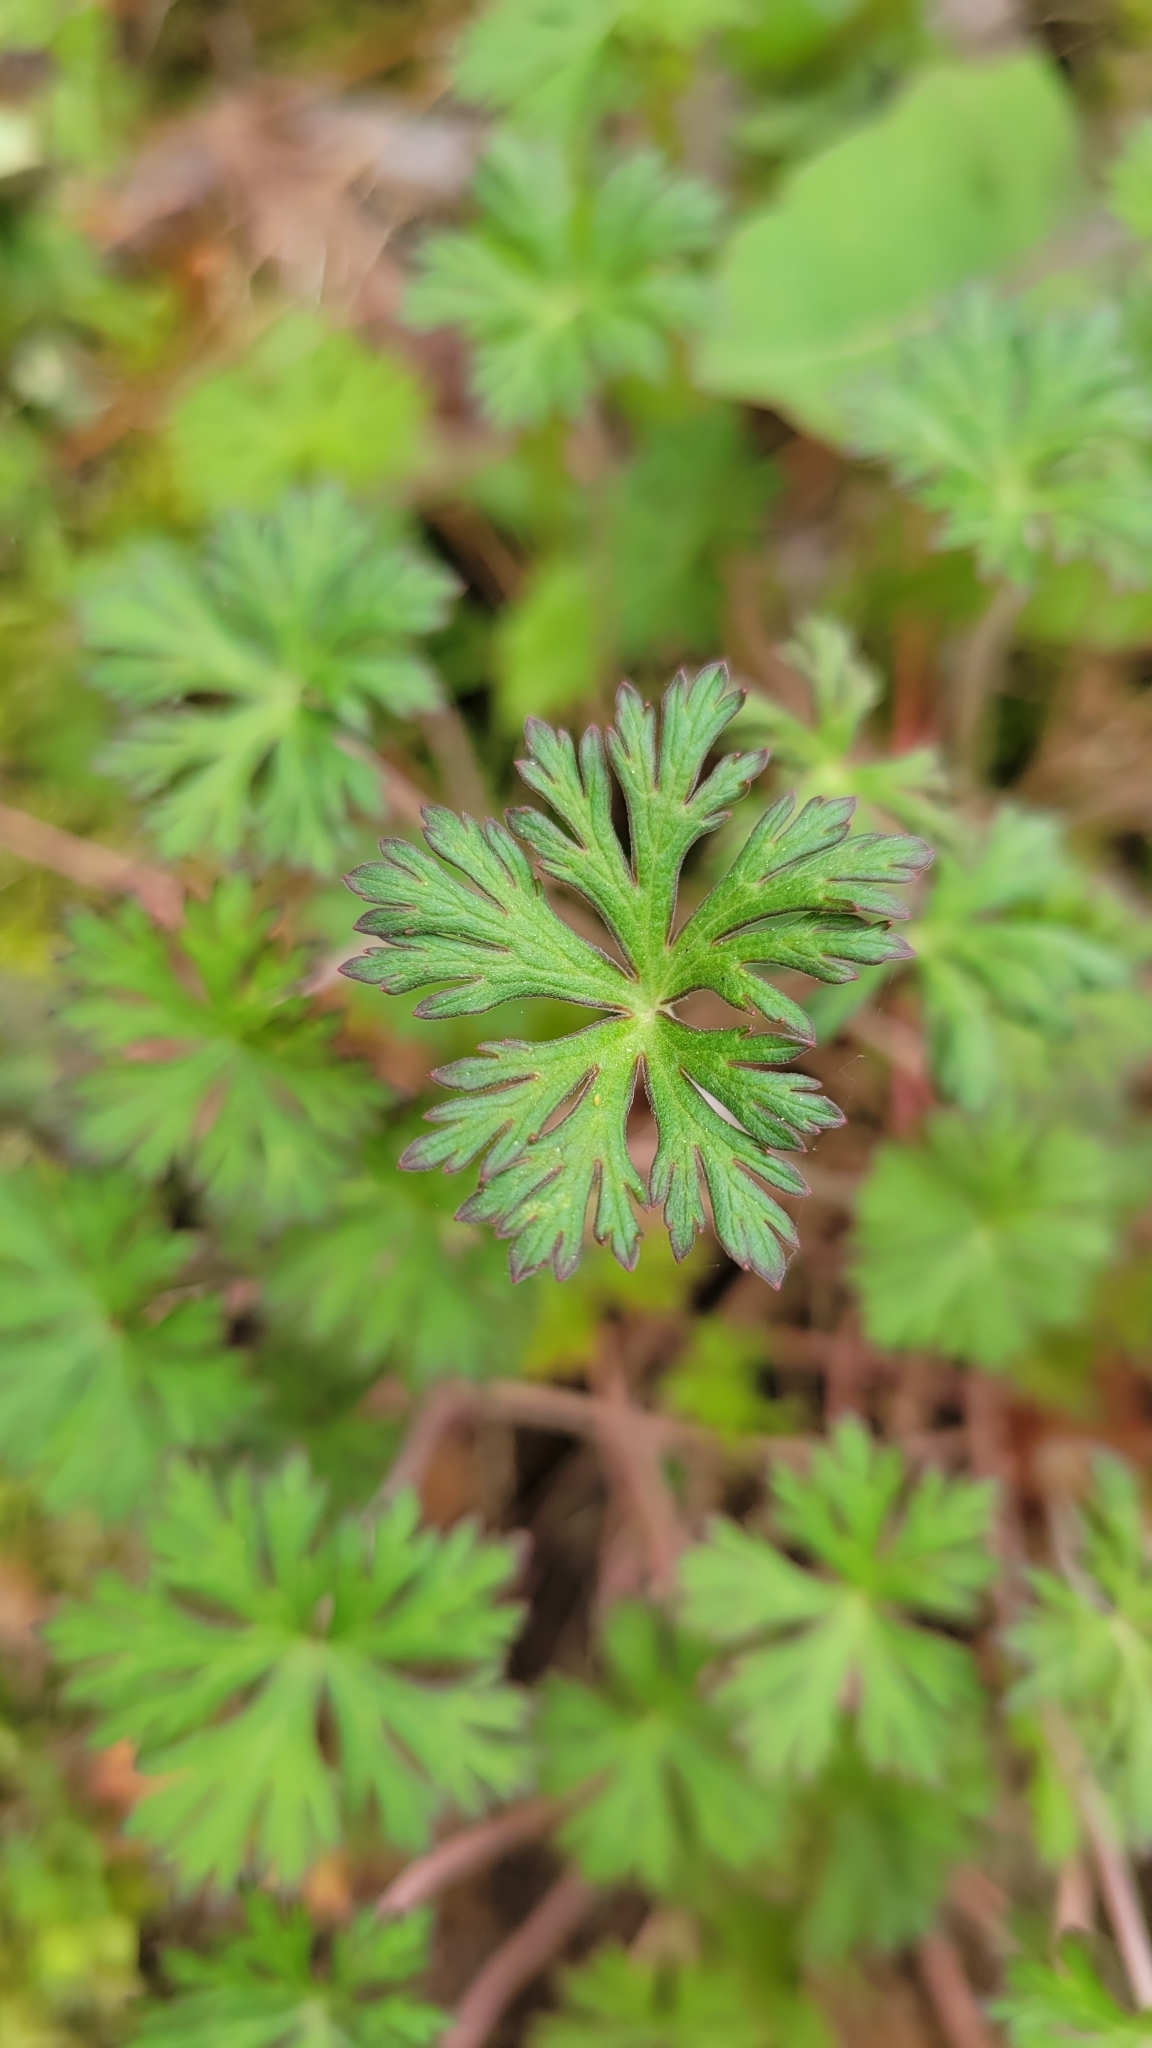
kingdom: Plantae
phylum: Tracheophyta
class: Magnoliopsida
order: Geraniales
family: Geraniaceae
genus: Geranium
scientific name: Geranium carolinianum
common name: Carolina crane's-bill
